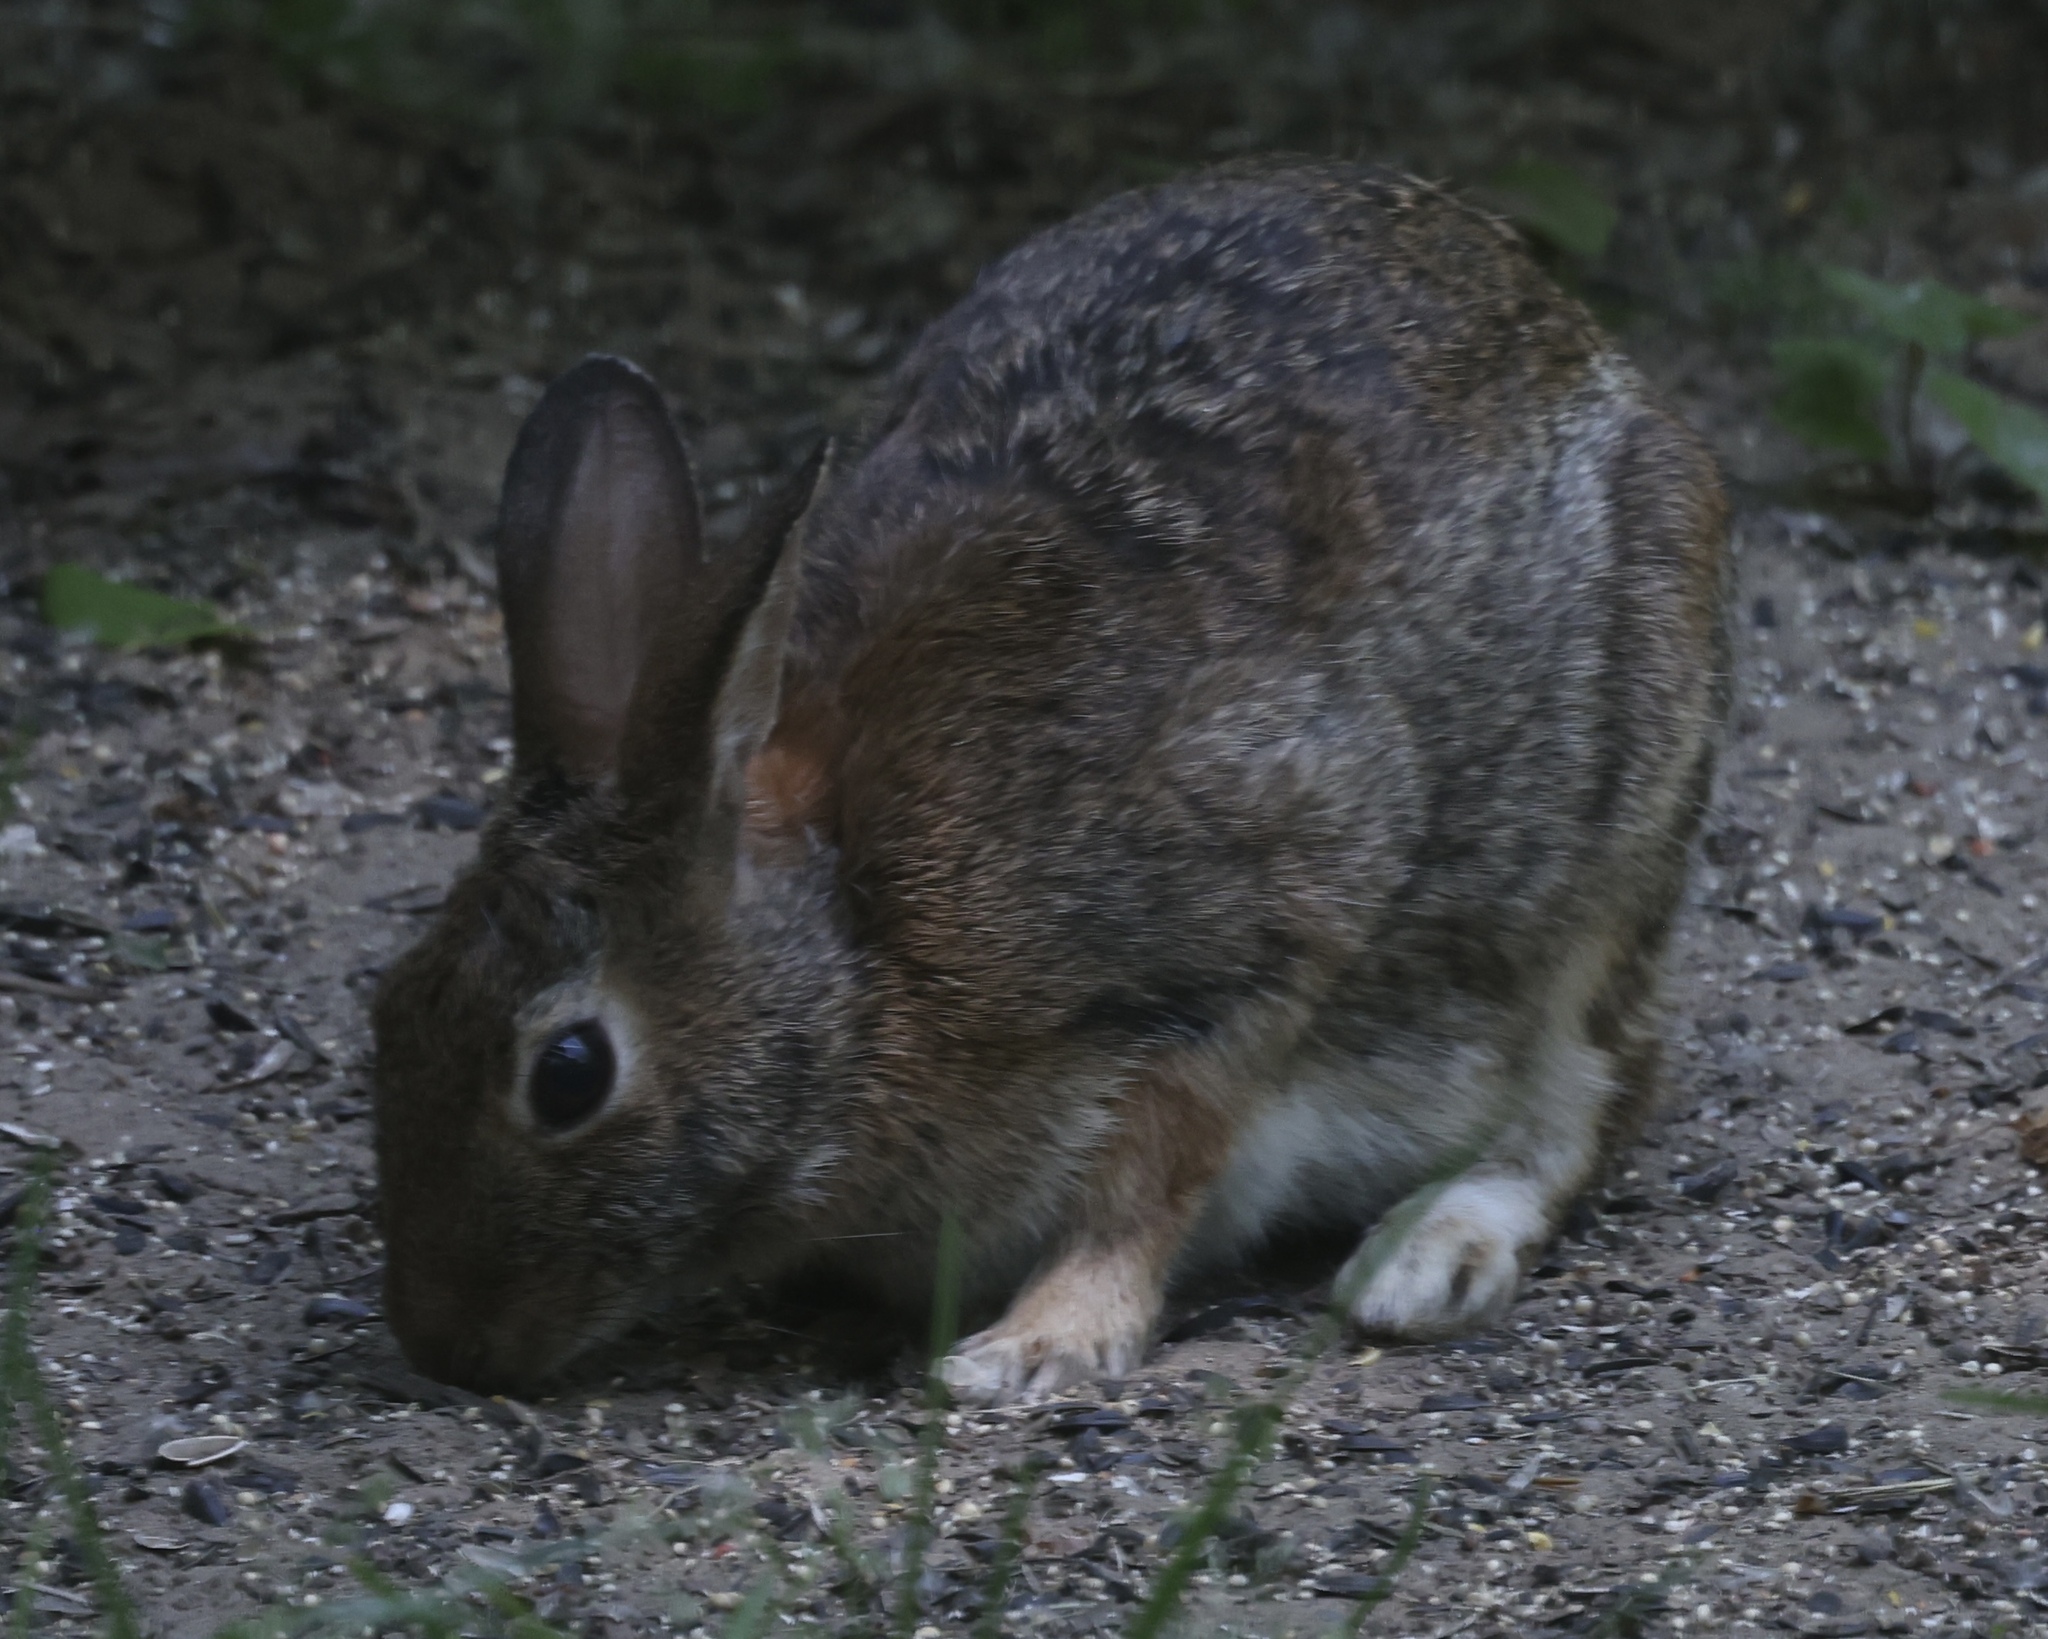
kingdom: Animalia
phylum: Chordata
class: Mammalia
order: Lagomorpha
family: Leporidae
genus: Sylvilagus
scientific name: Sylvilagus floridanus
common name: Eastern cottontail
